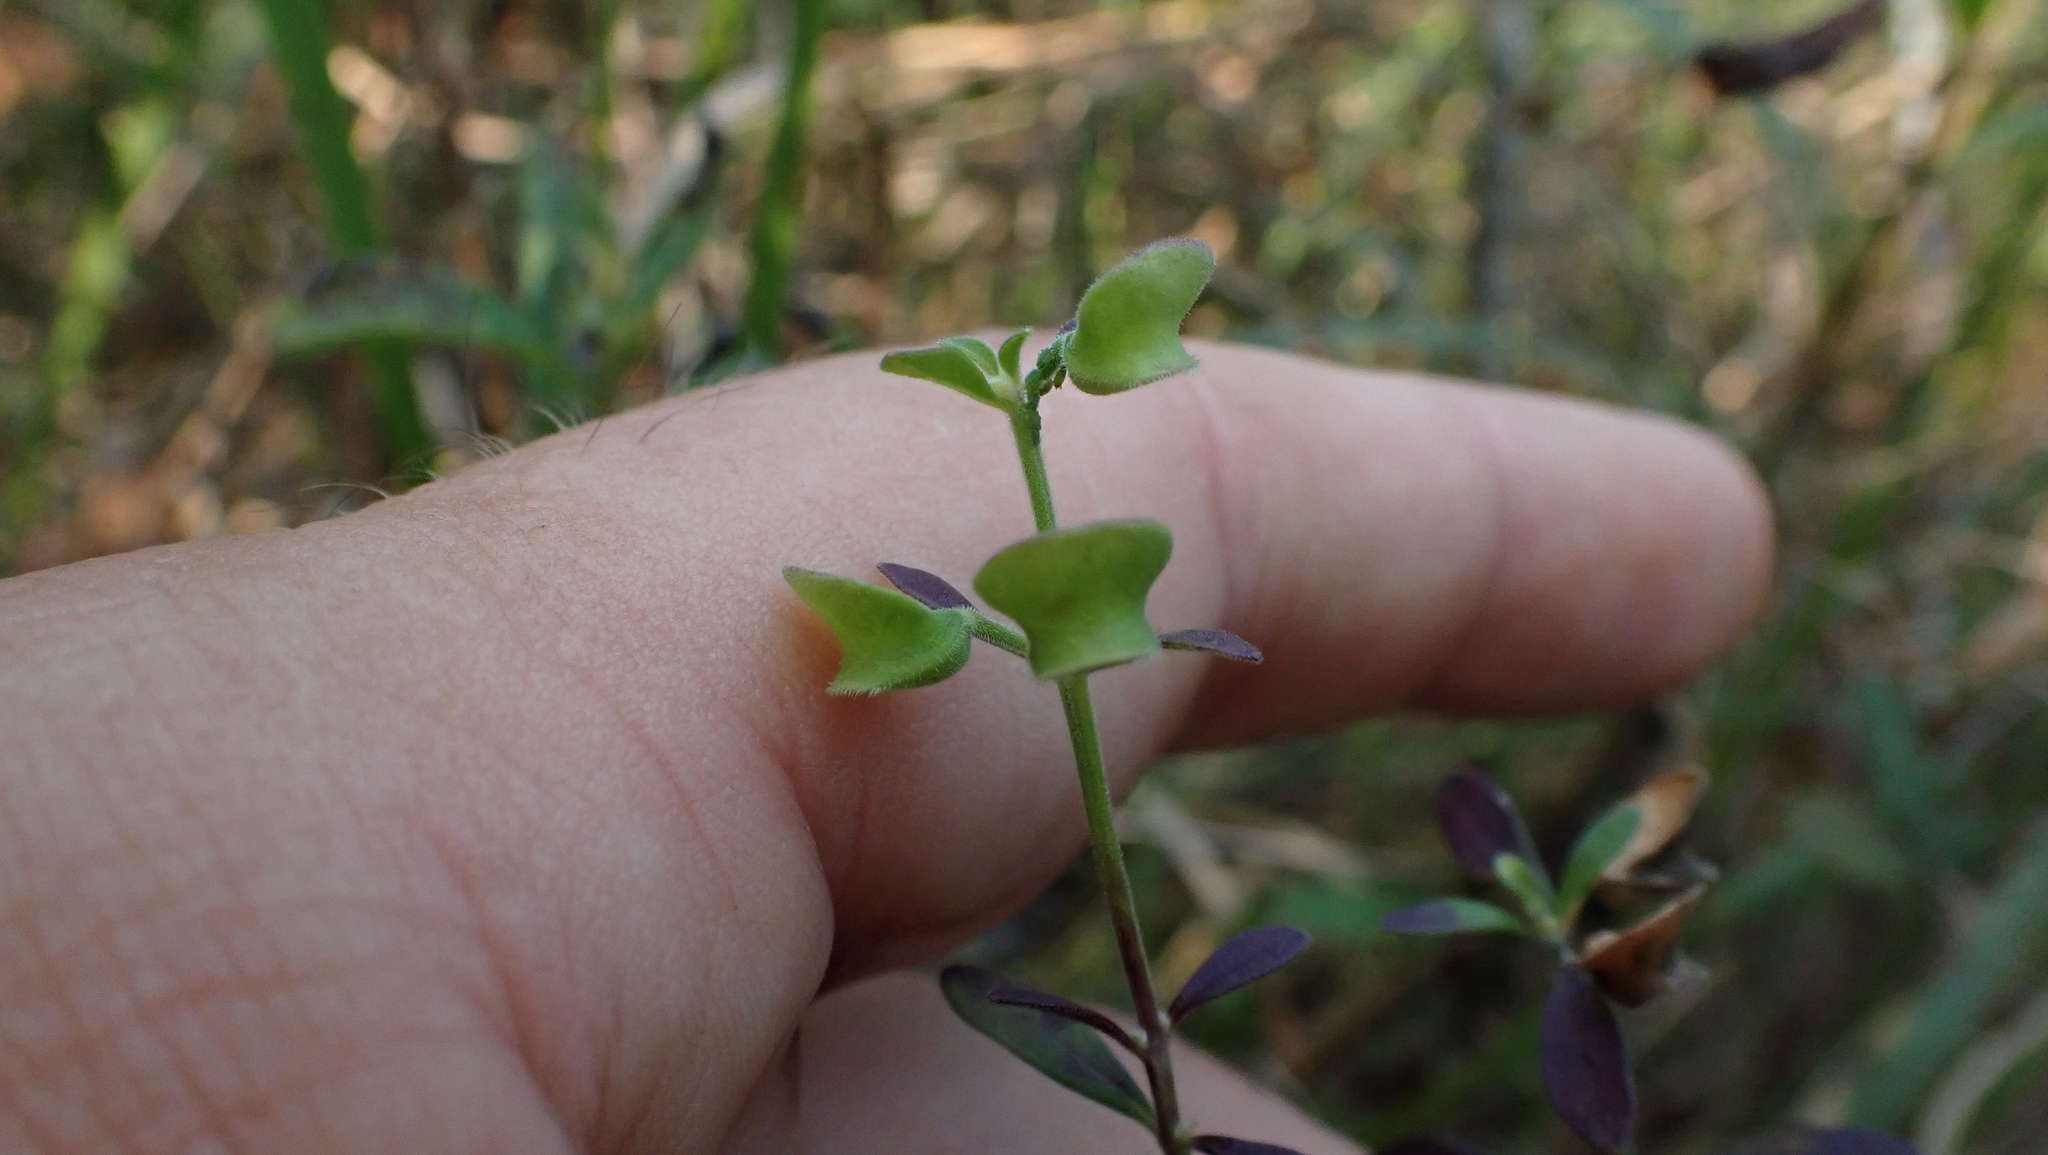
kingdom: Plantae
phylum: Tracheophyta
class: Magnoliopsida
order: Lamiales
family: Lamiaceae
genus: Scutellaria
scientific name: Scutellaria integrifolia
